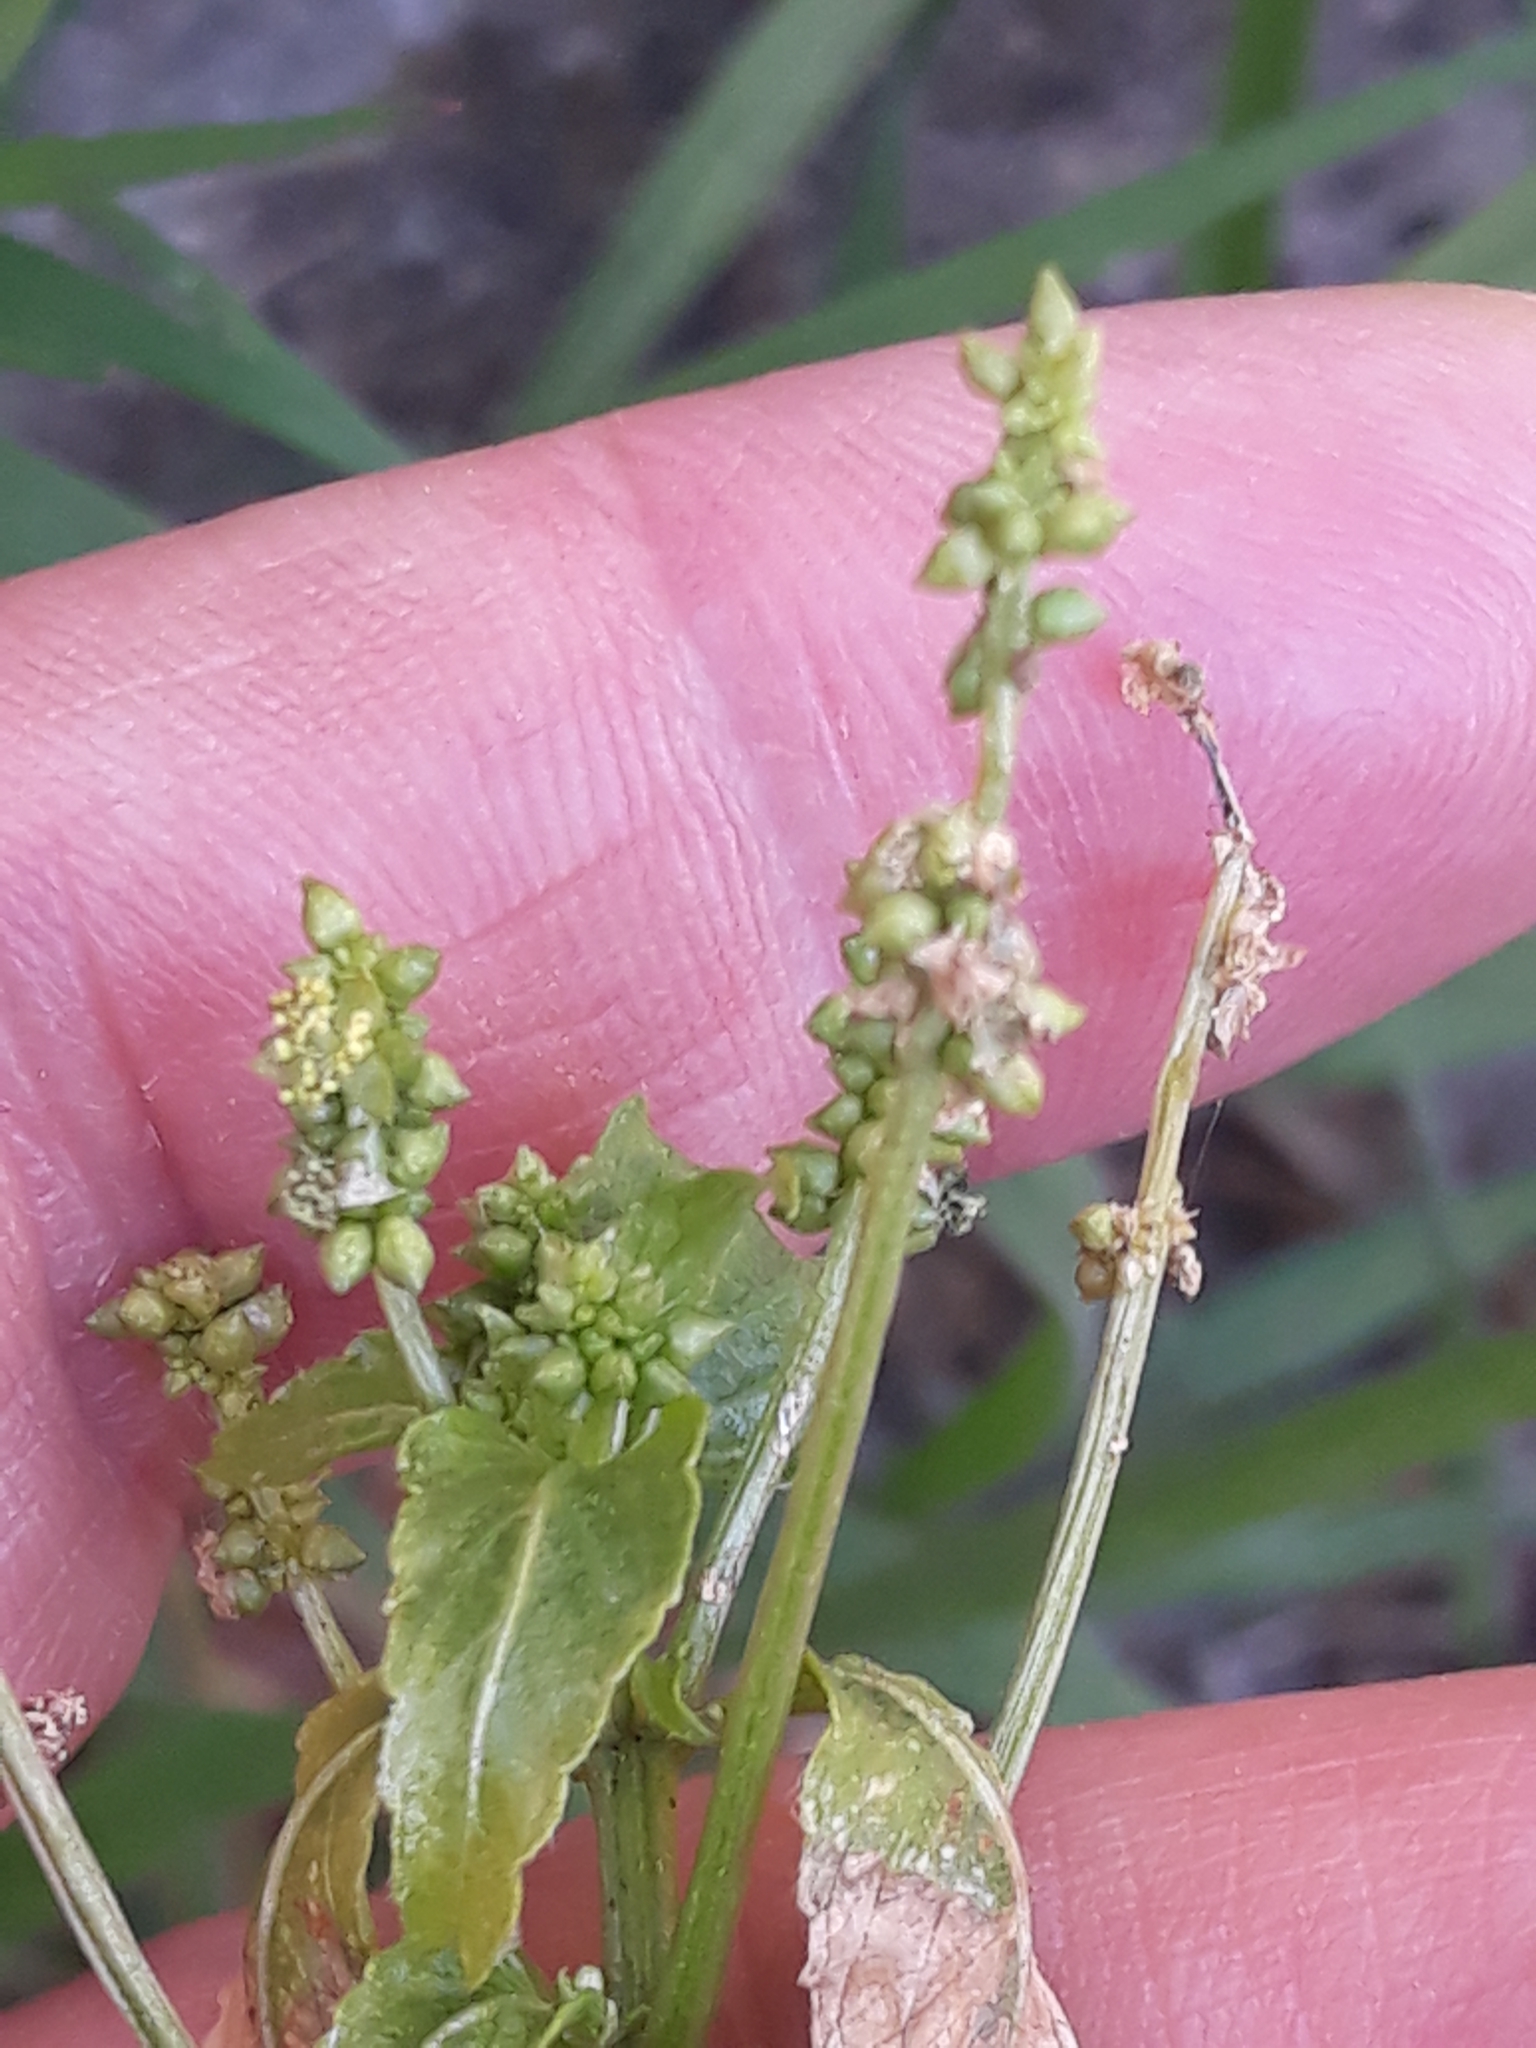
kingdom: Plantae
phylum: Tracheophyta
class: Magnoliopsida
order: Malpighiales
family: Euphorbiaceae
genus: Mercurialis
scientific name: Mercurialis annua
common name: Annual mercury
